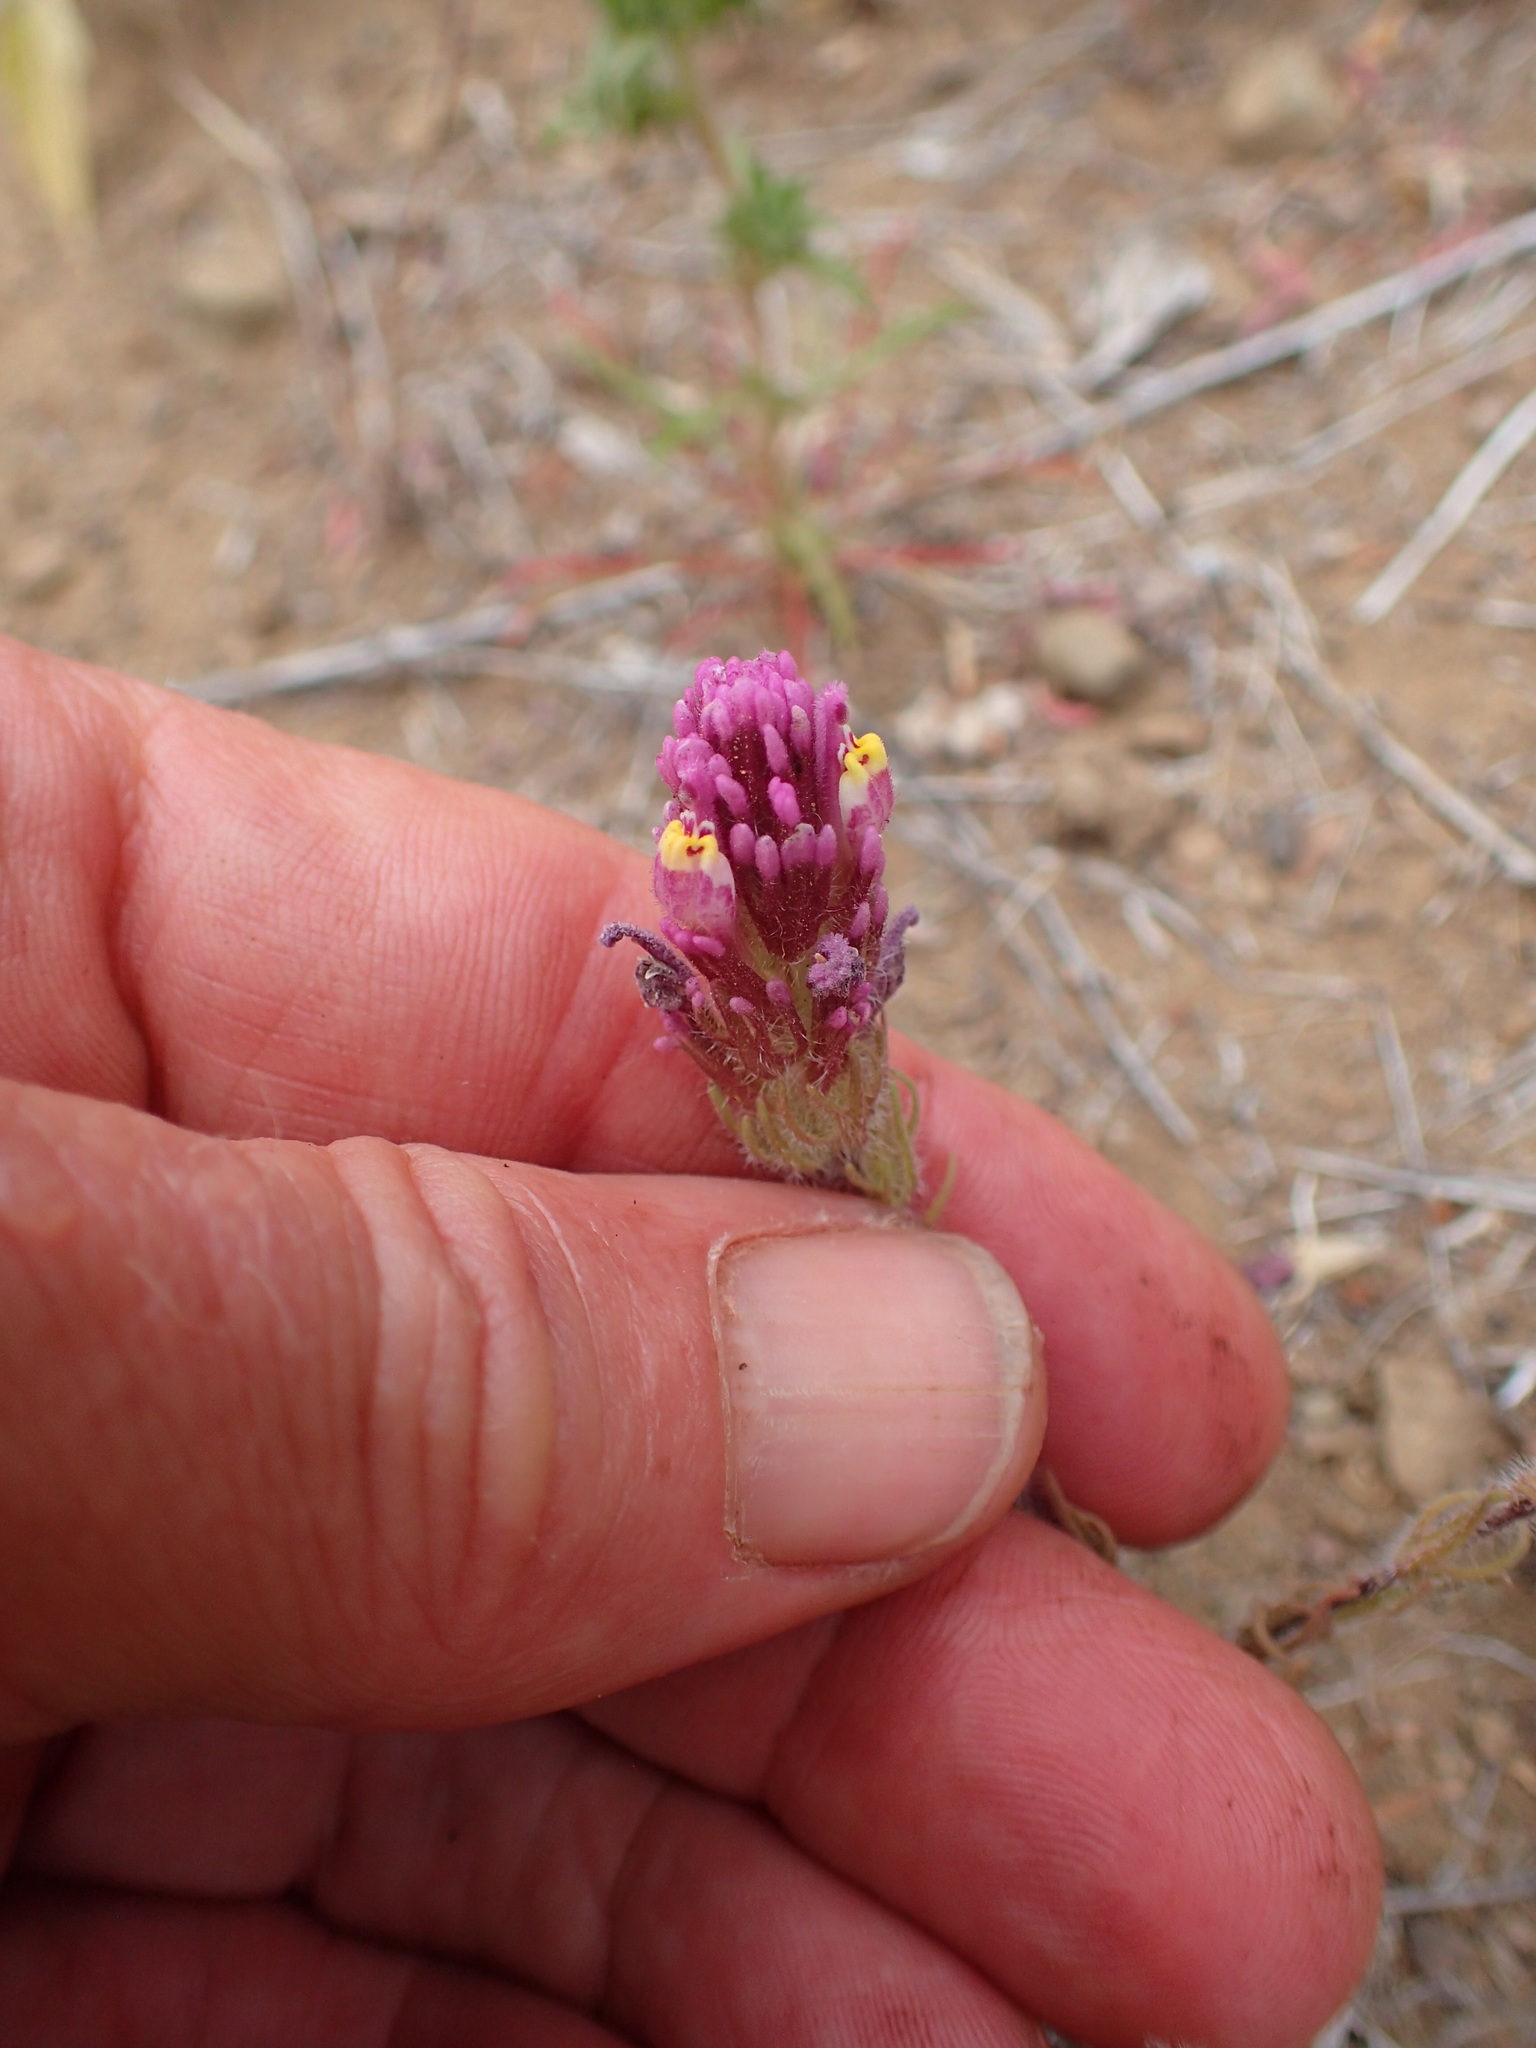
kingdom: Plantae
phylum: Tracheophyta
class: Magnoliopsida
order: Lamiales
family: Orobanchaceae
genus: Castilleja
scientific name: Castilleja exserta
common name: Purple owl-clover
